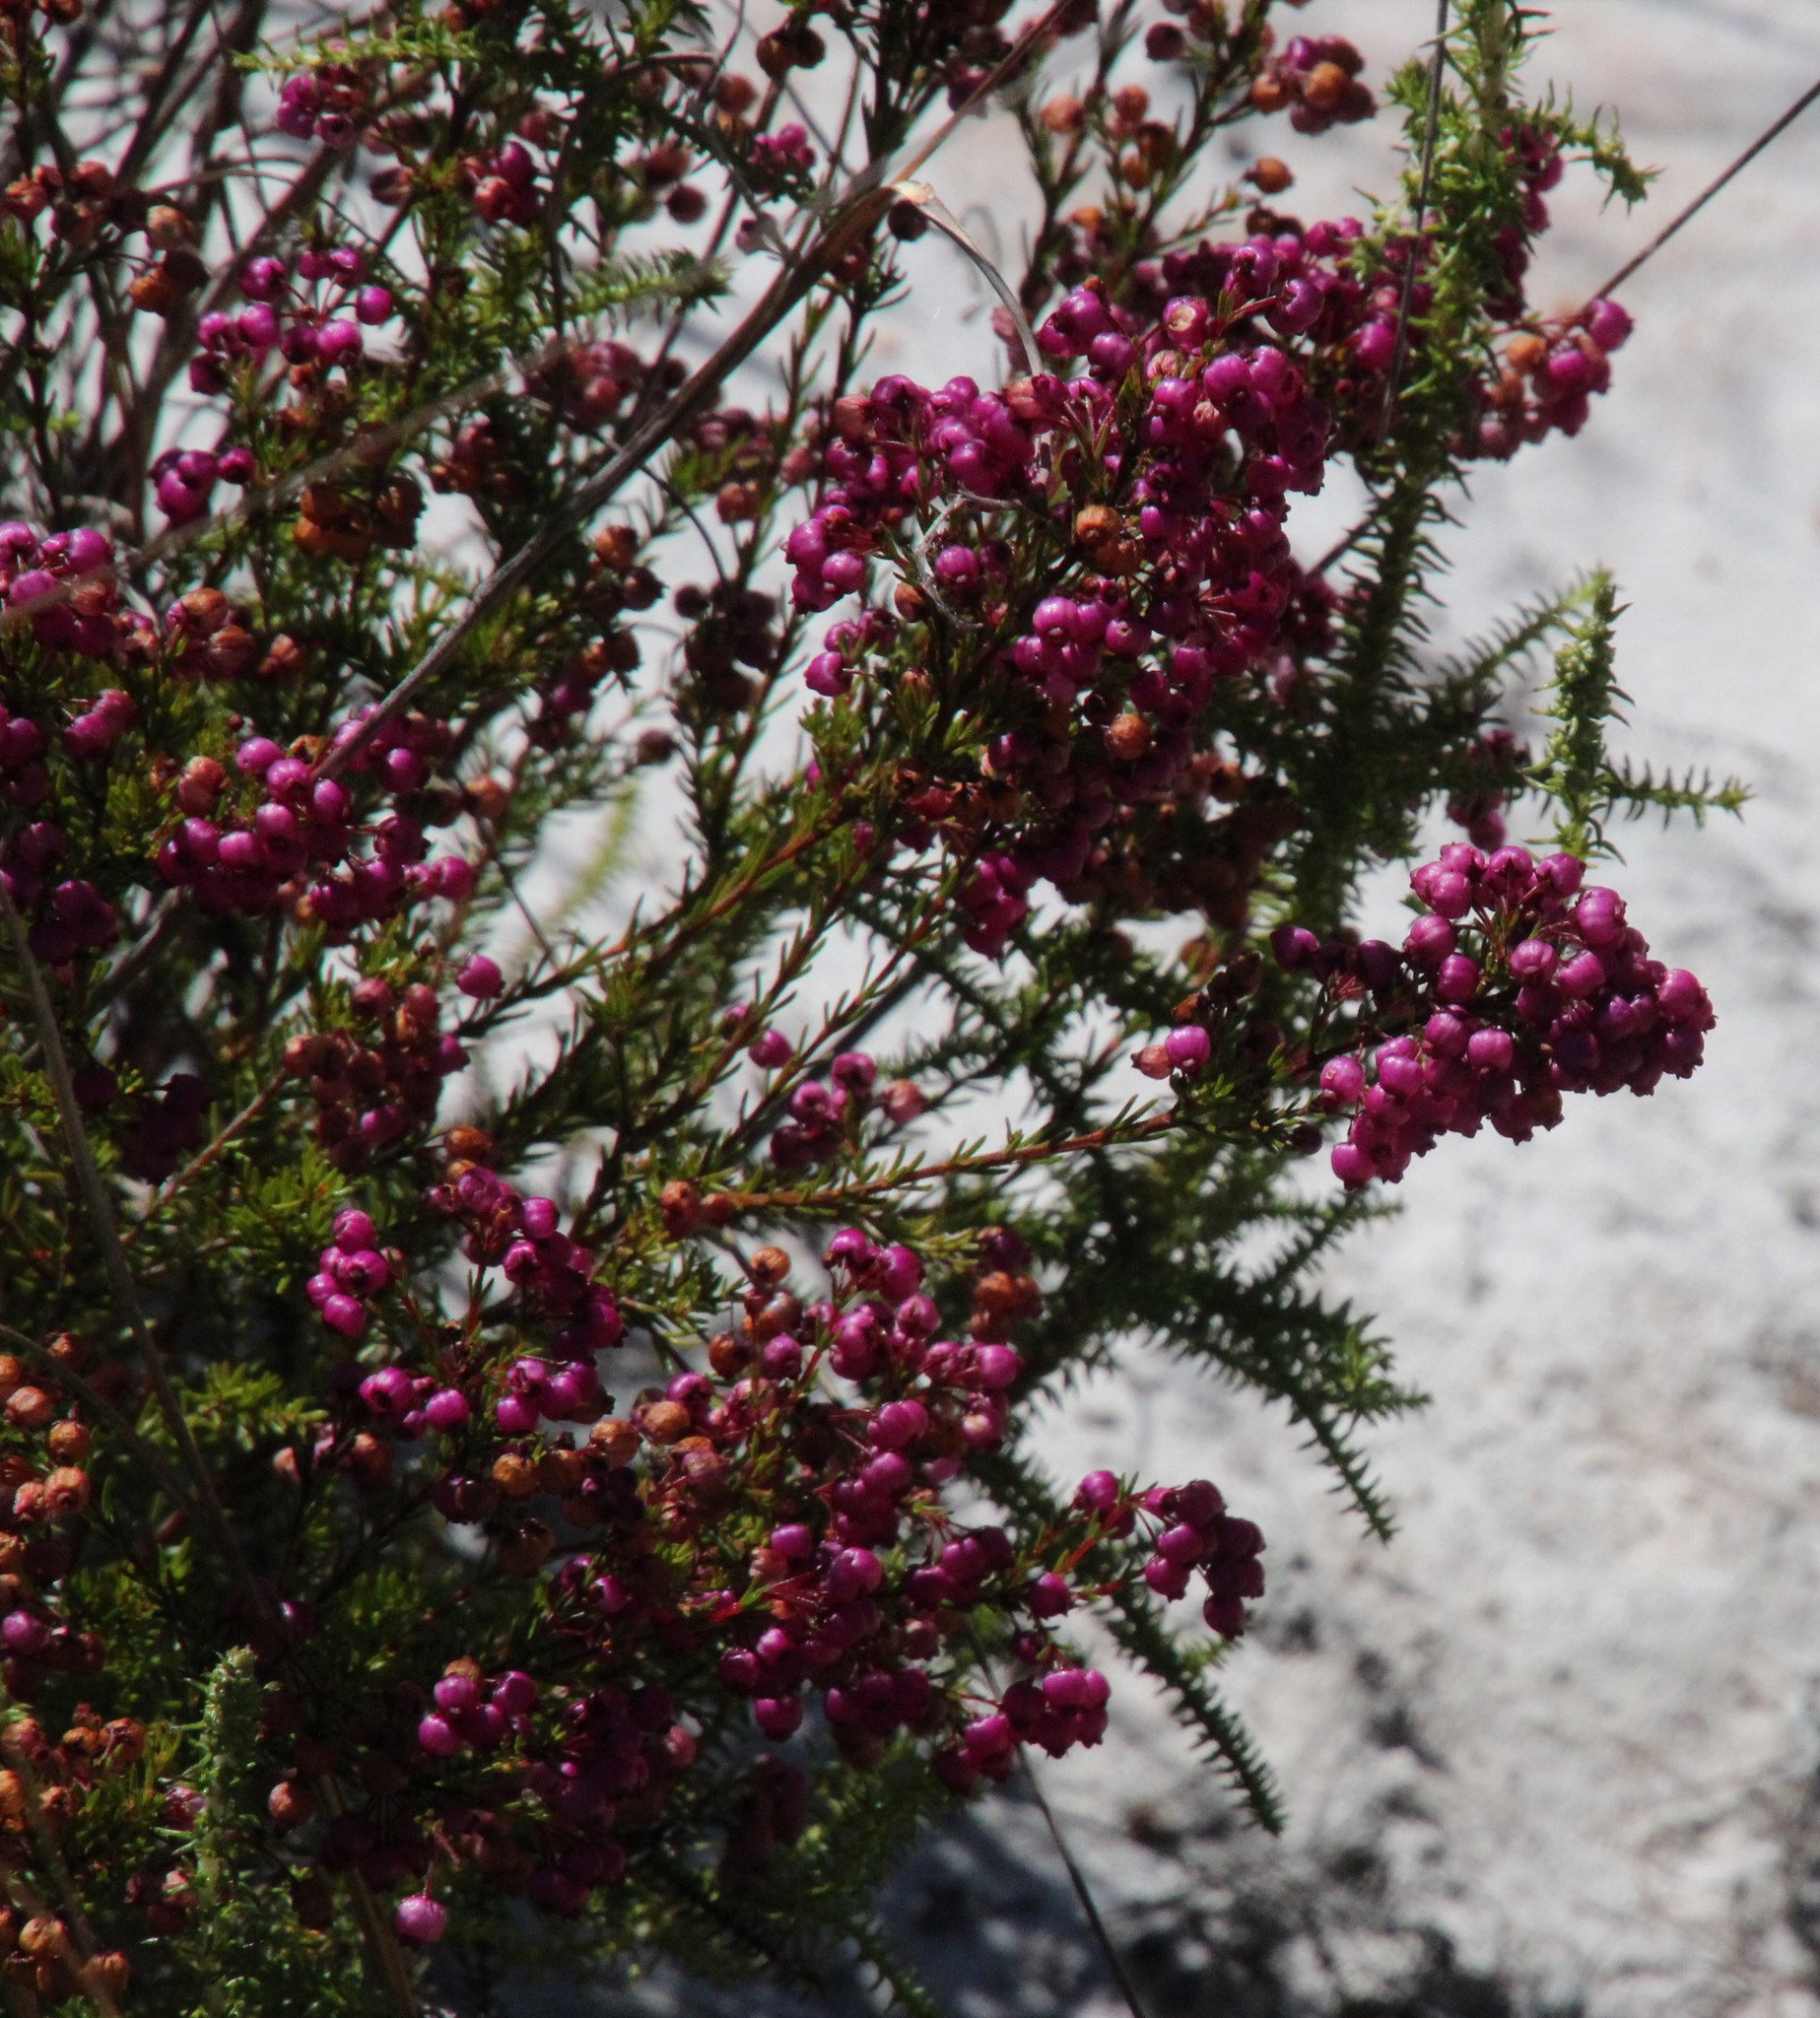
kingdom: Plantae
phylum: Tracheophyta
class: Magnoliopsida
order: Ericales
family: Ericaceae
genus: Erica
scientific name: Erica multumbellifera
